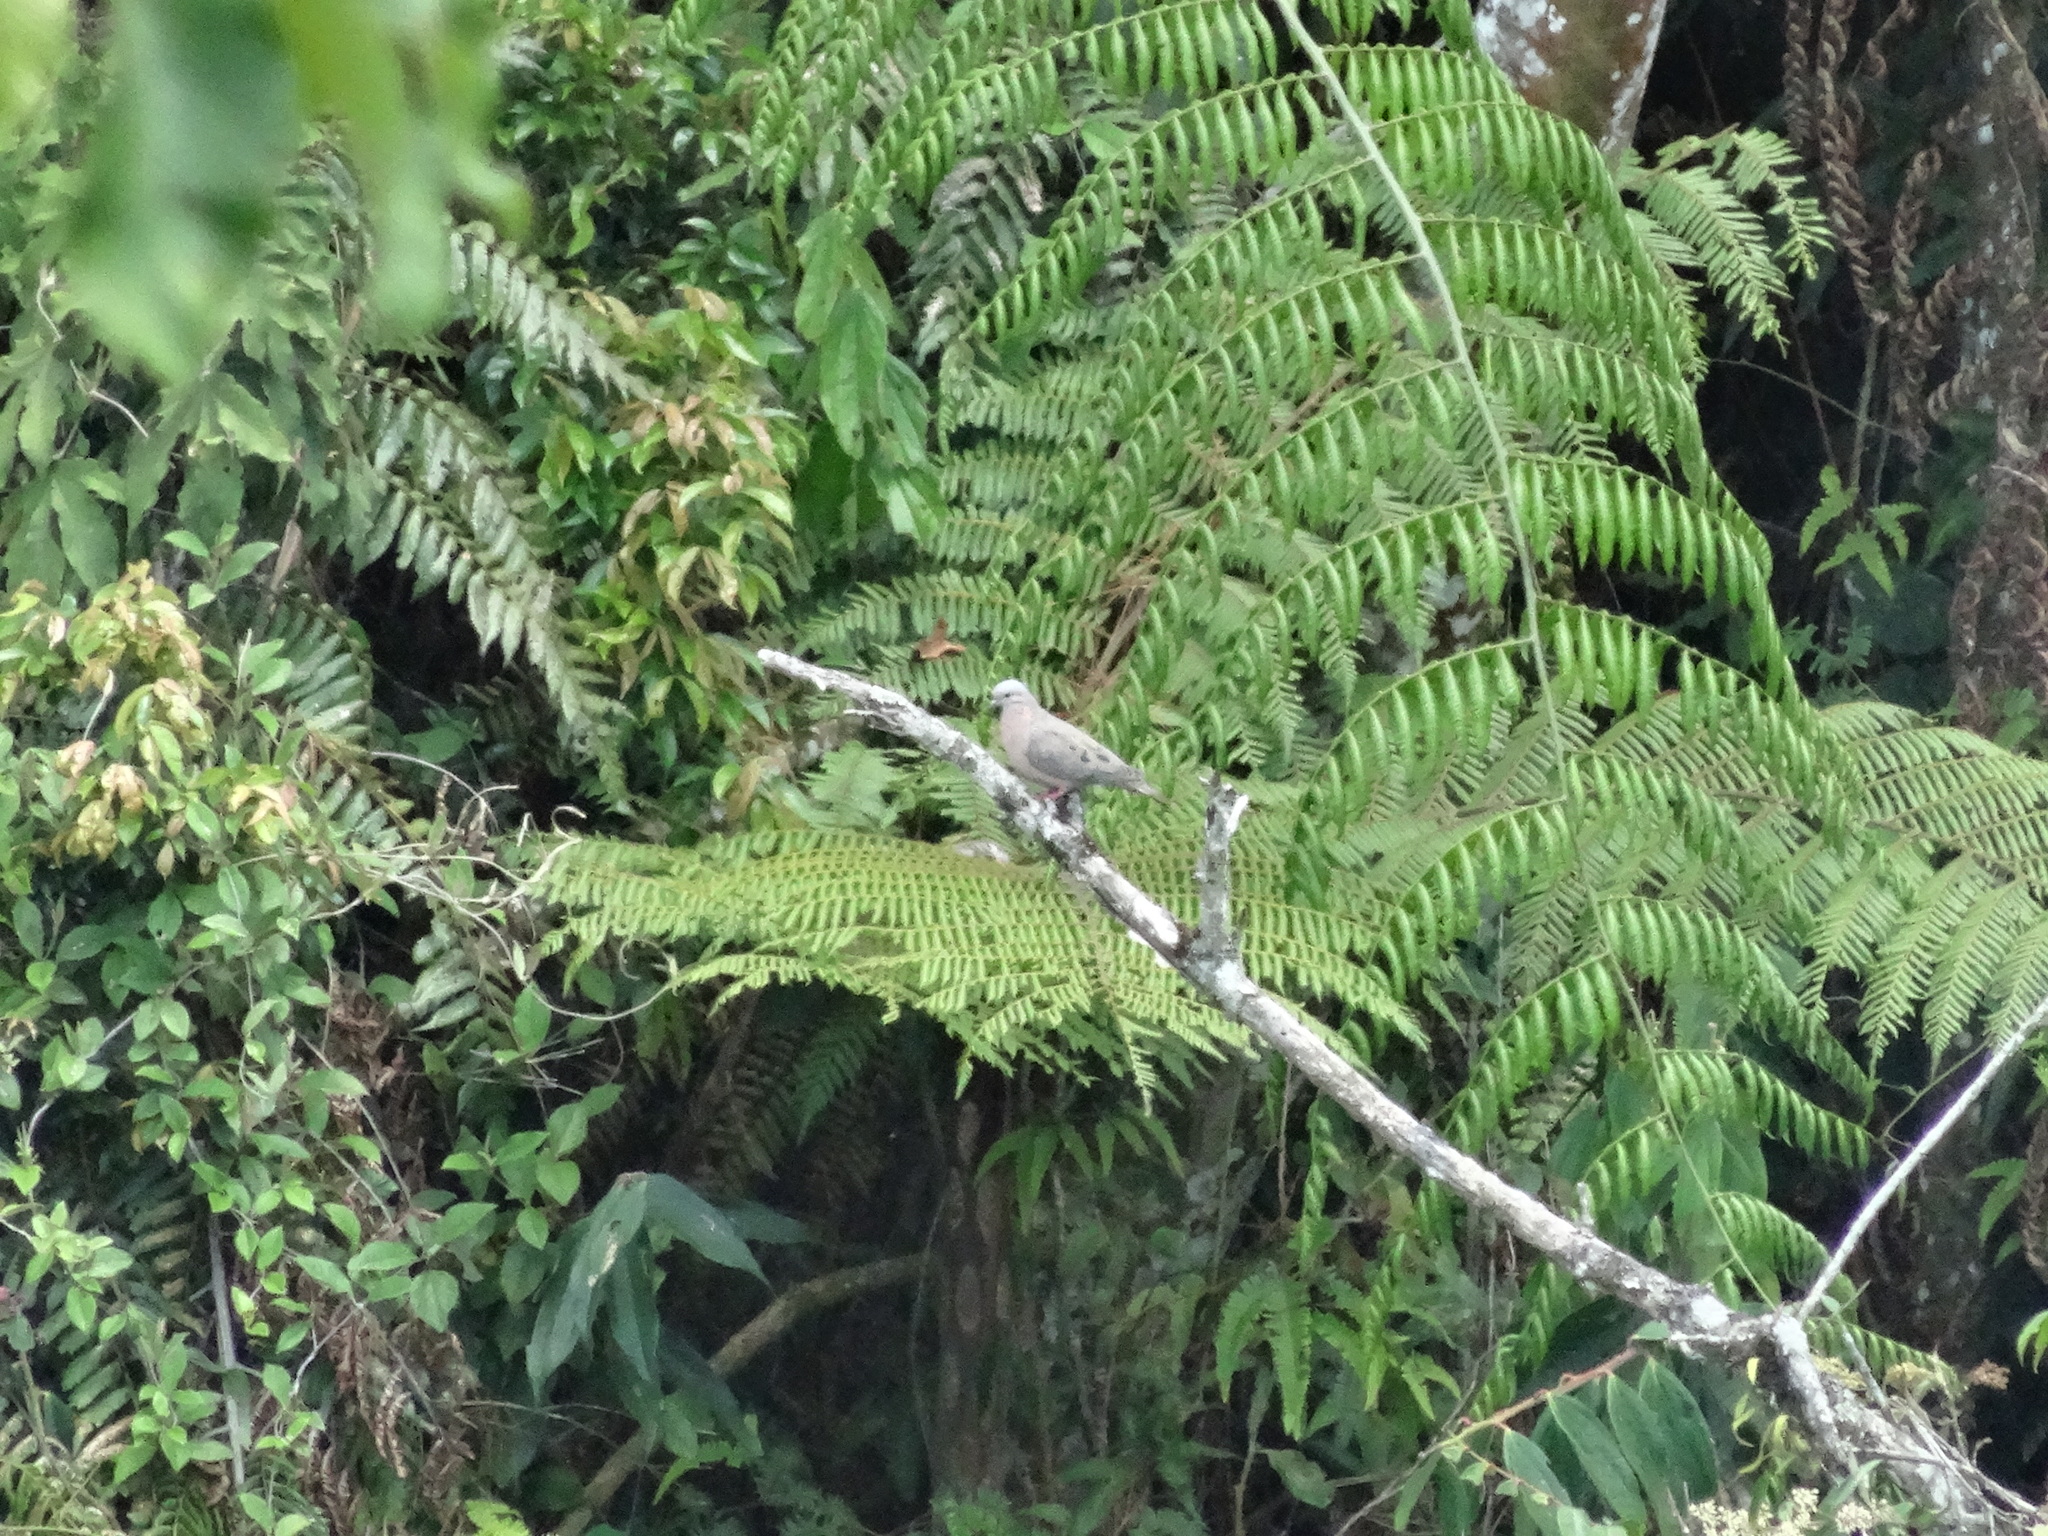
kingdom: Animalia
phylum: Chordata
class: Aves
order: Columbiformes
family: Columbidae
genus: Zenaida
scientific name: Zenaida auriculata
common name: Eared dove
